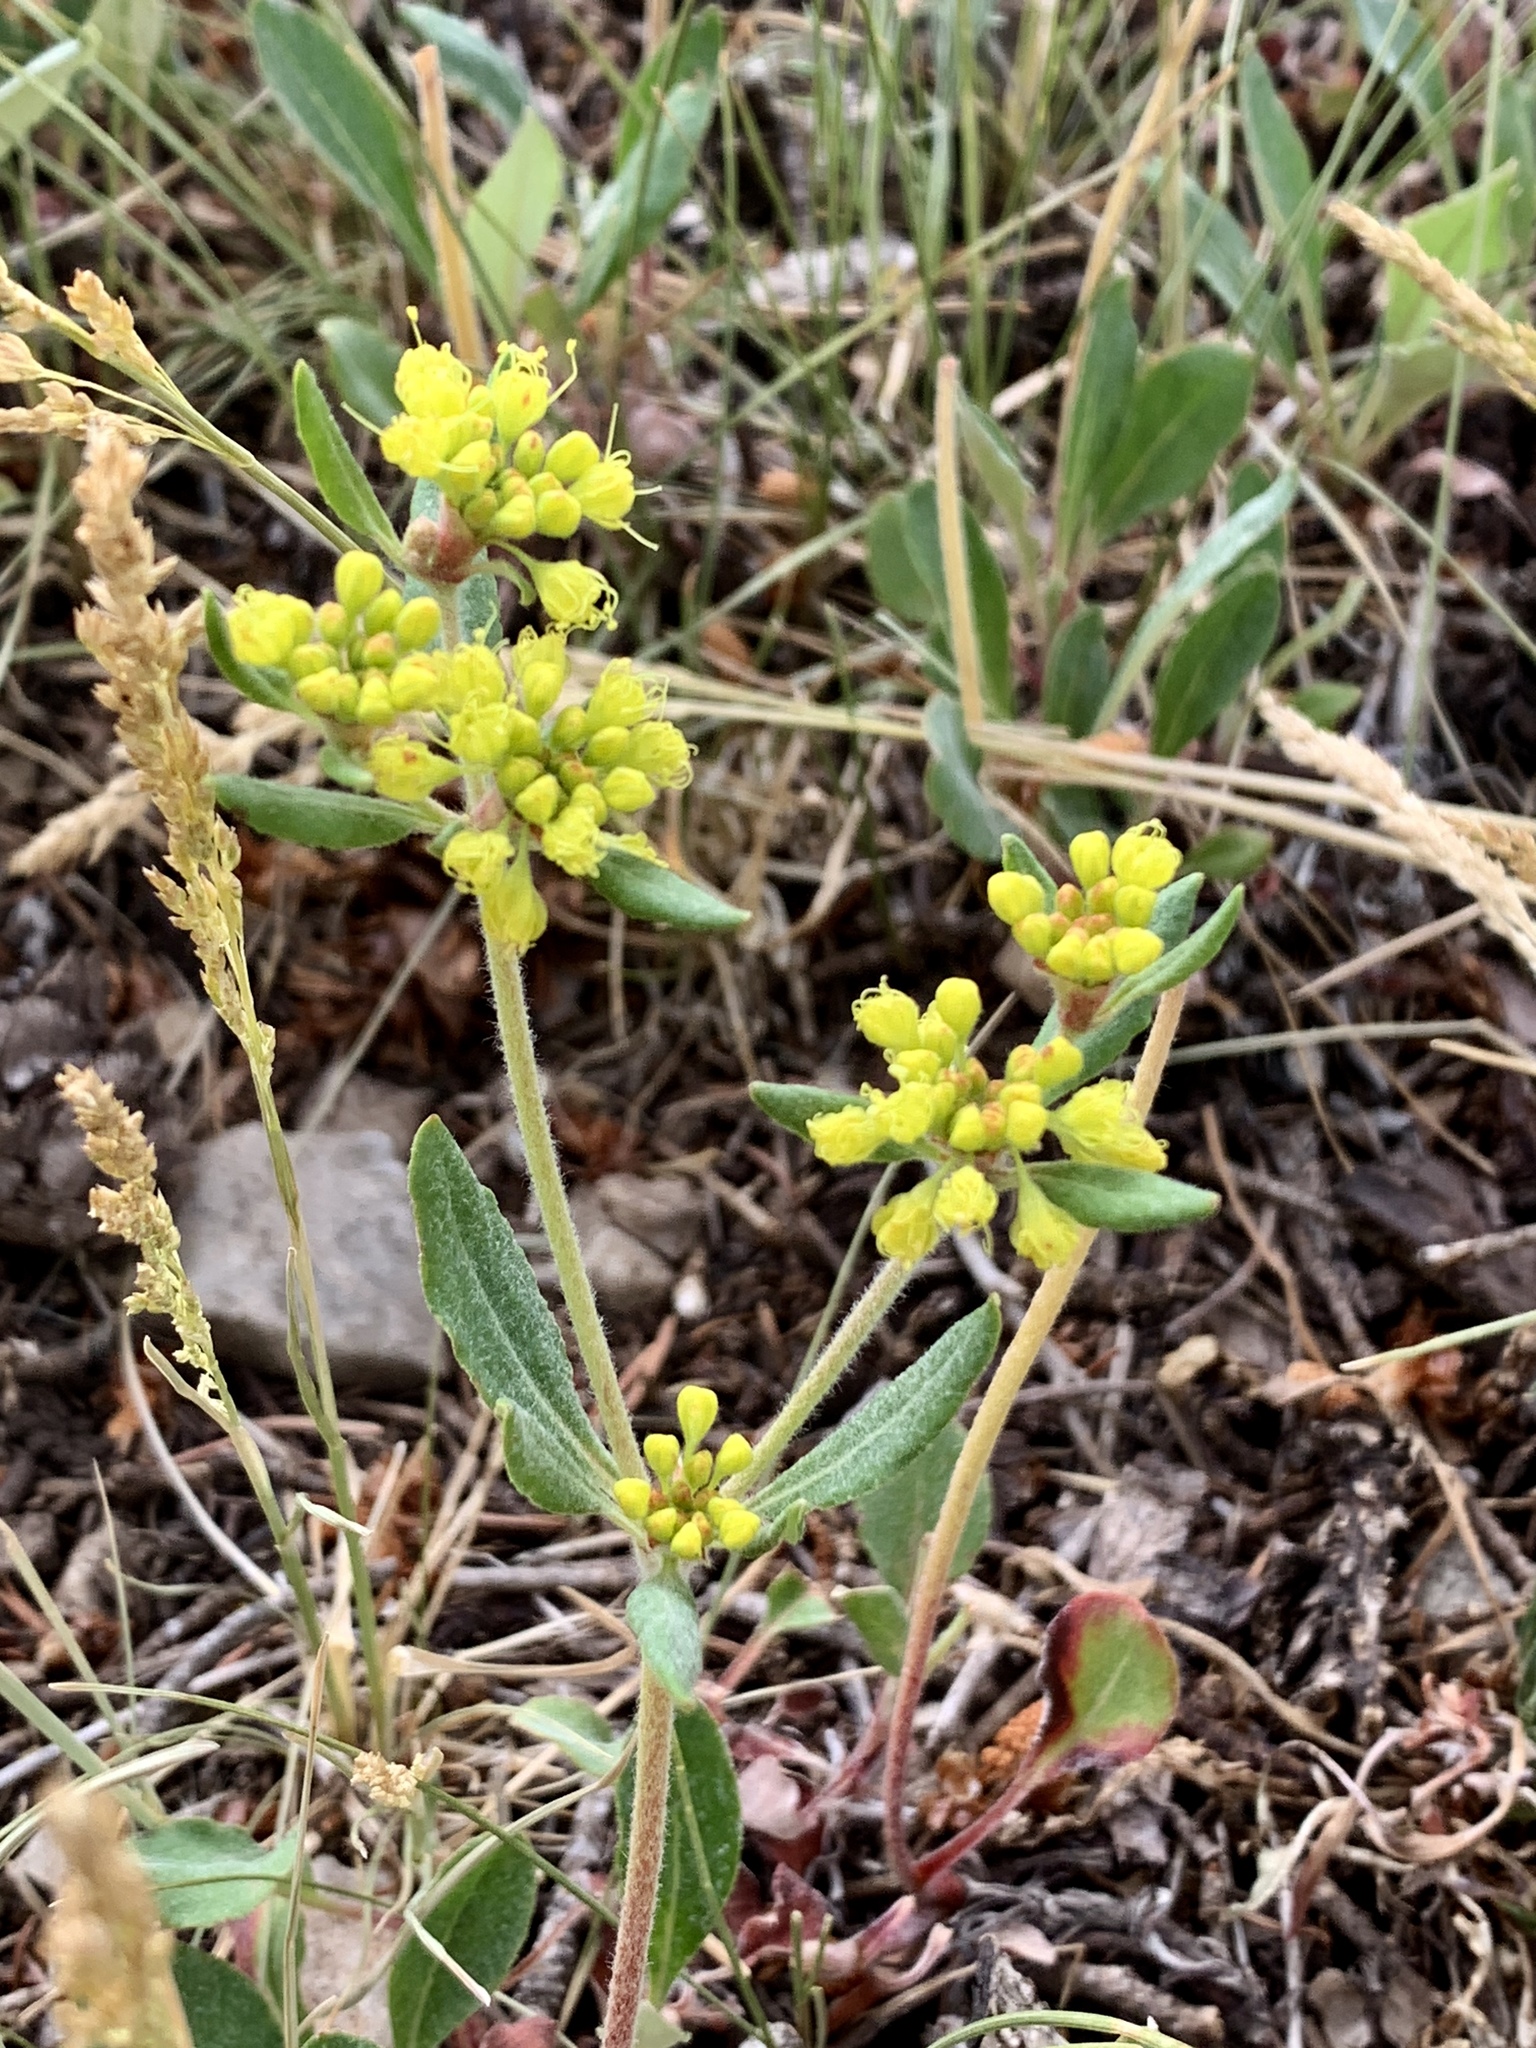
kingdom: Plantae
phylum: Tracheophyta
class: Magnoliopsida
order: Caryophyllales
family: Polygonaceae
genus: Eriogonum
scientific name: Eriogonum wootonii
